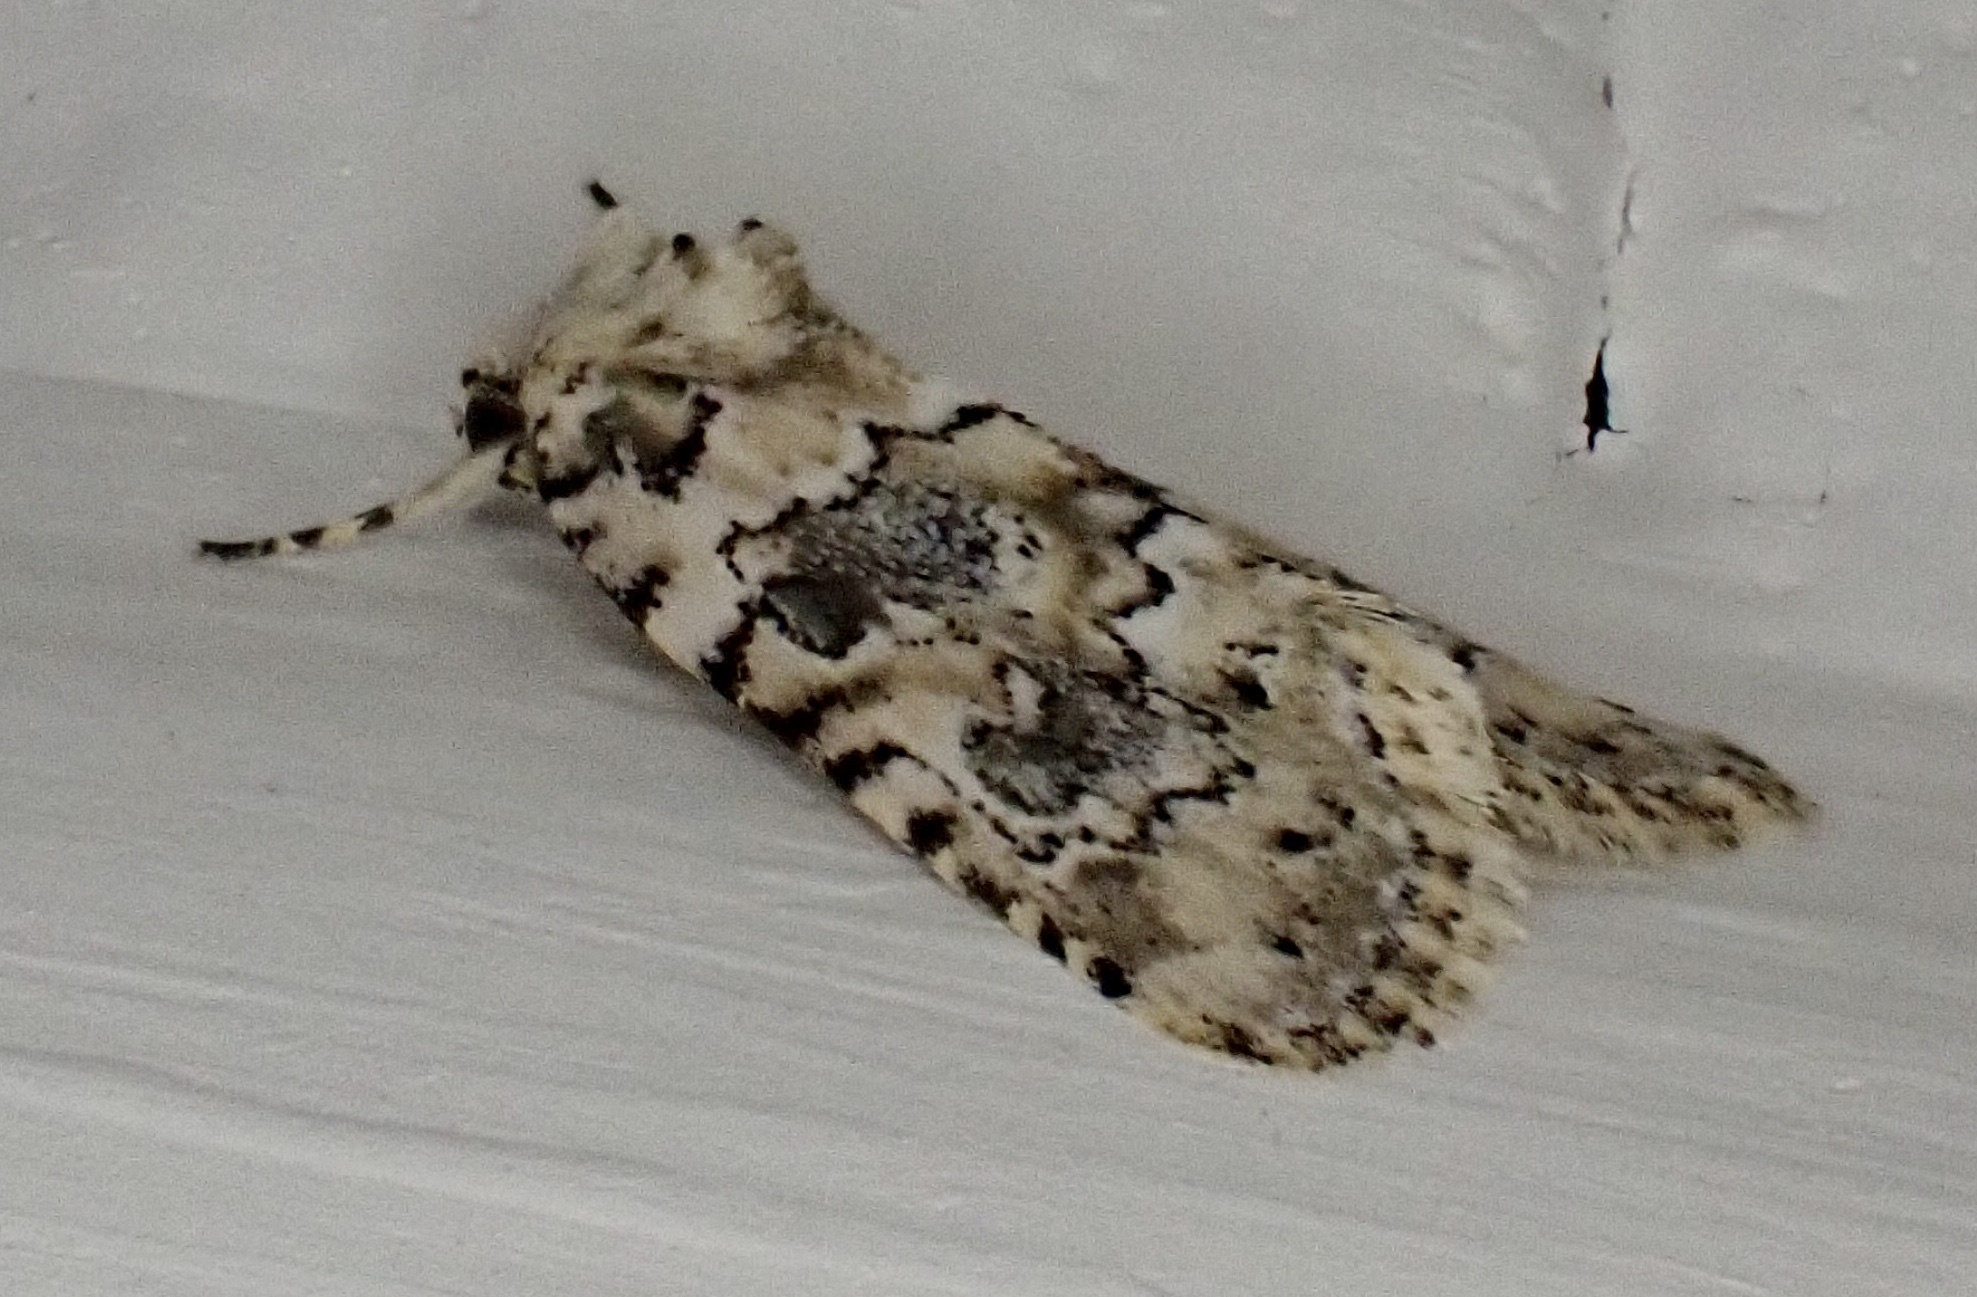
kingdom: Animalia
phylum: Arthropoda
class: Insecta
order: Lepidoptera
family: Noctuidae
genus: Bryophila
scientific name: Bryophila domestica
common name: Marbled beauty
